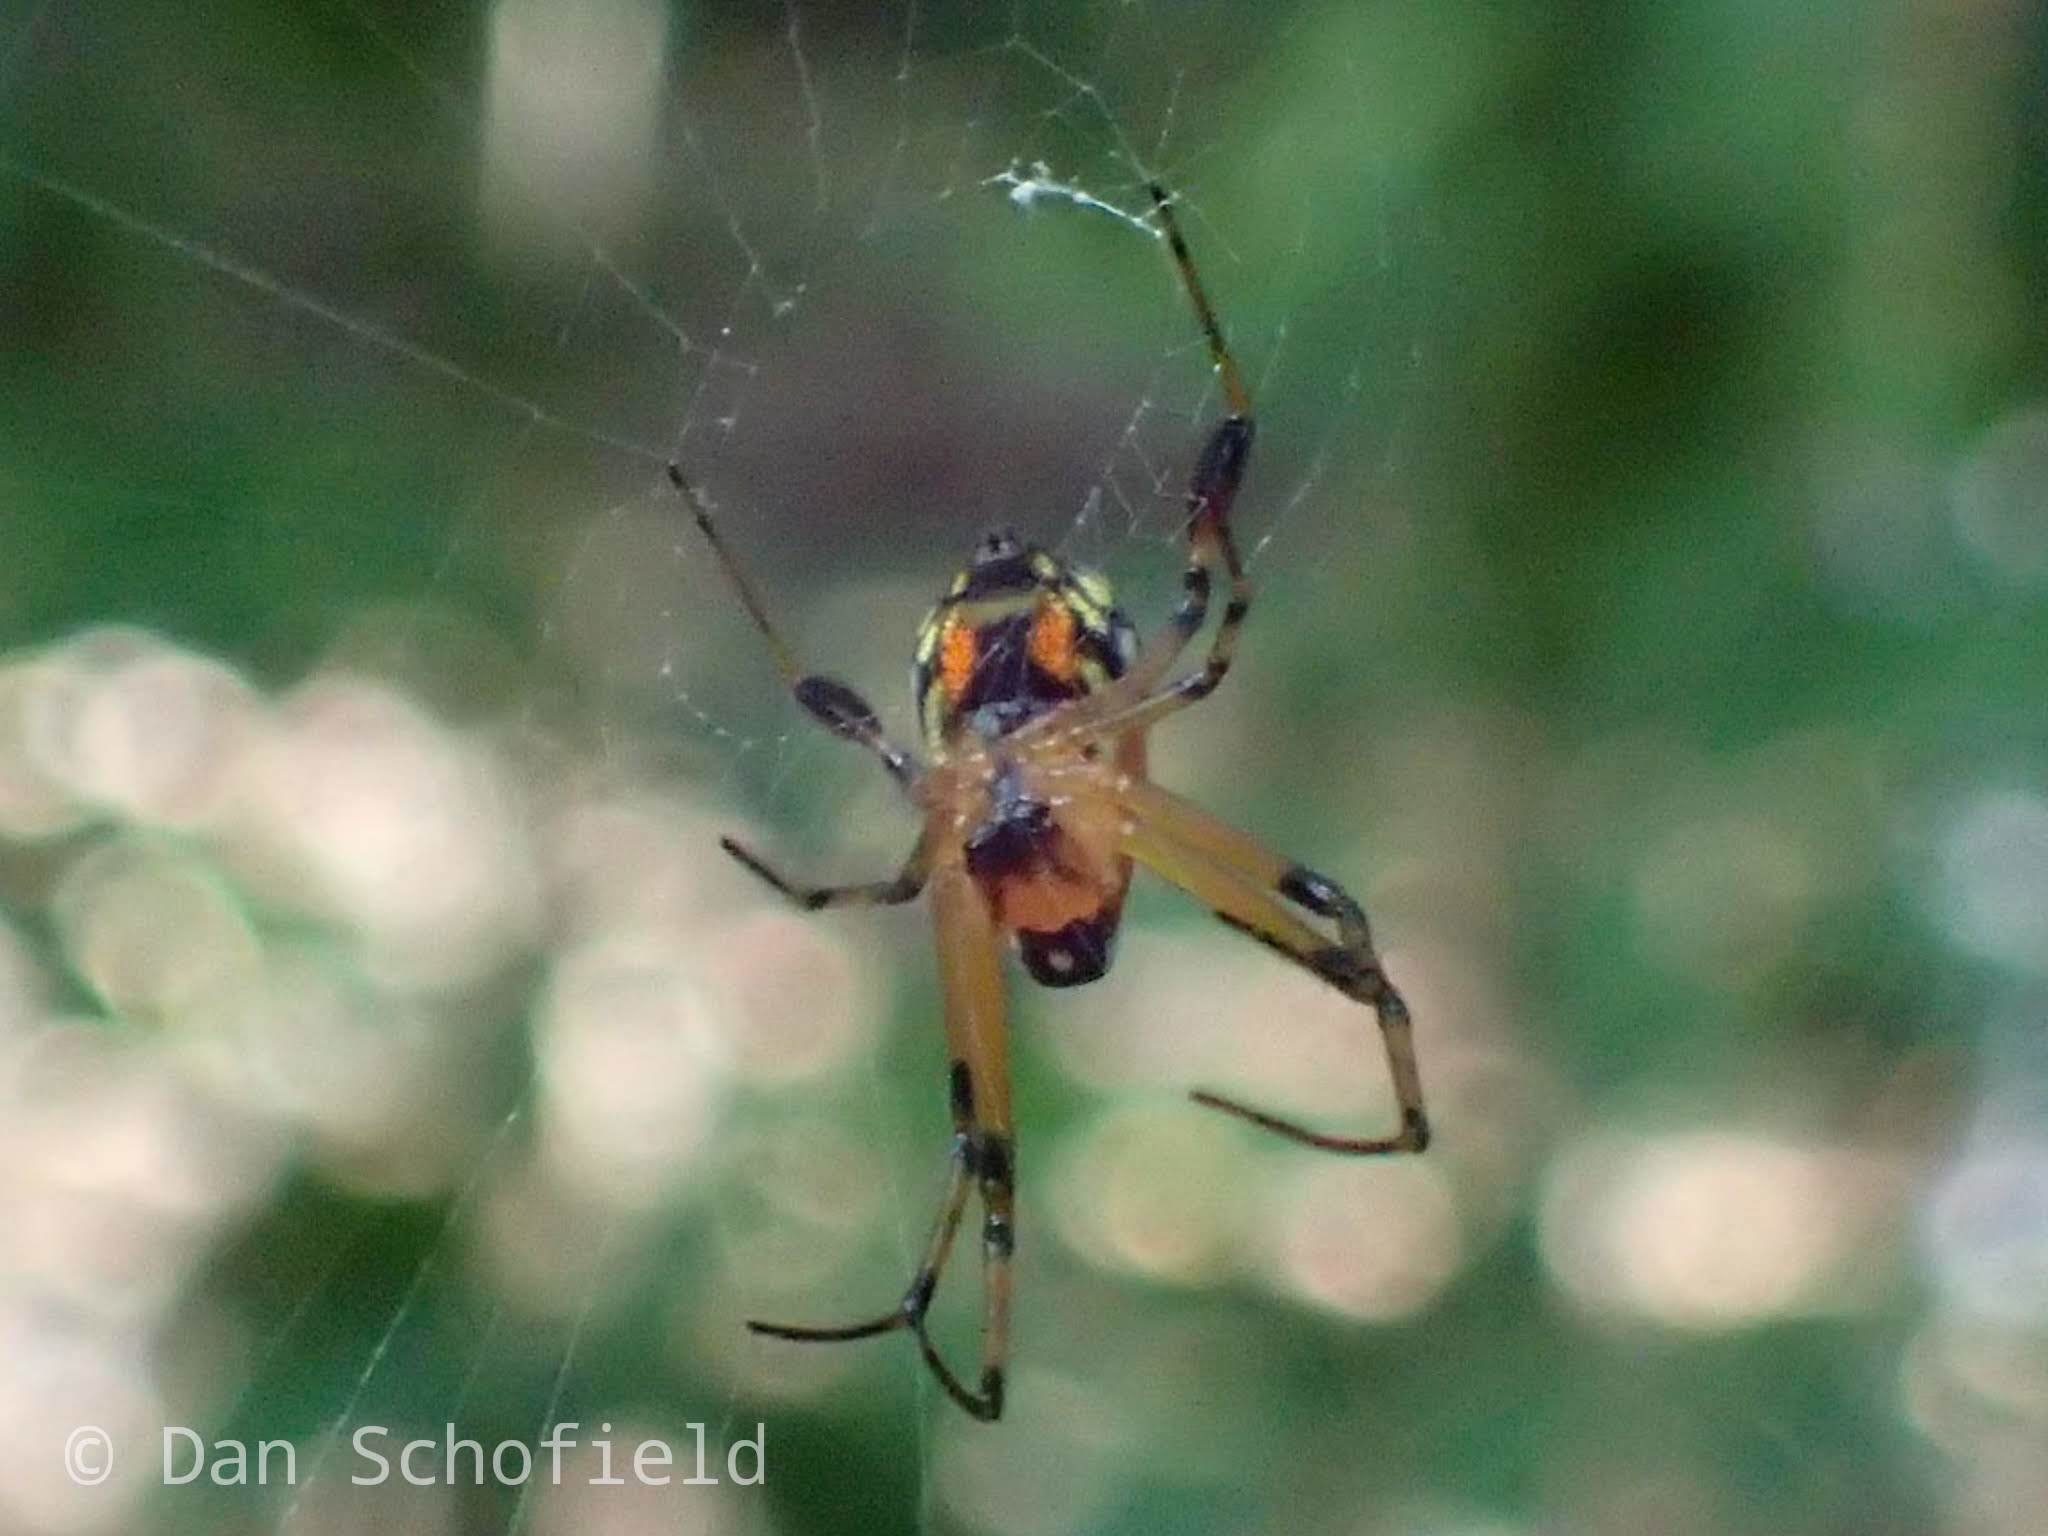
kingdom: Animalia
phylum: Arthropoda
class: Arachnida
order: Araneae
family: Tetragnathidae
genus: Leucauge
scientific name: Leucauge fastigata
